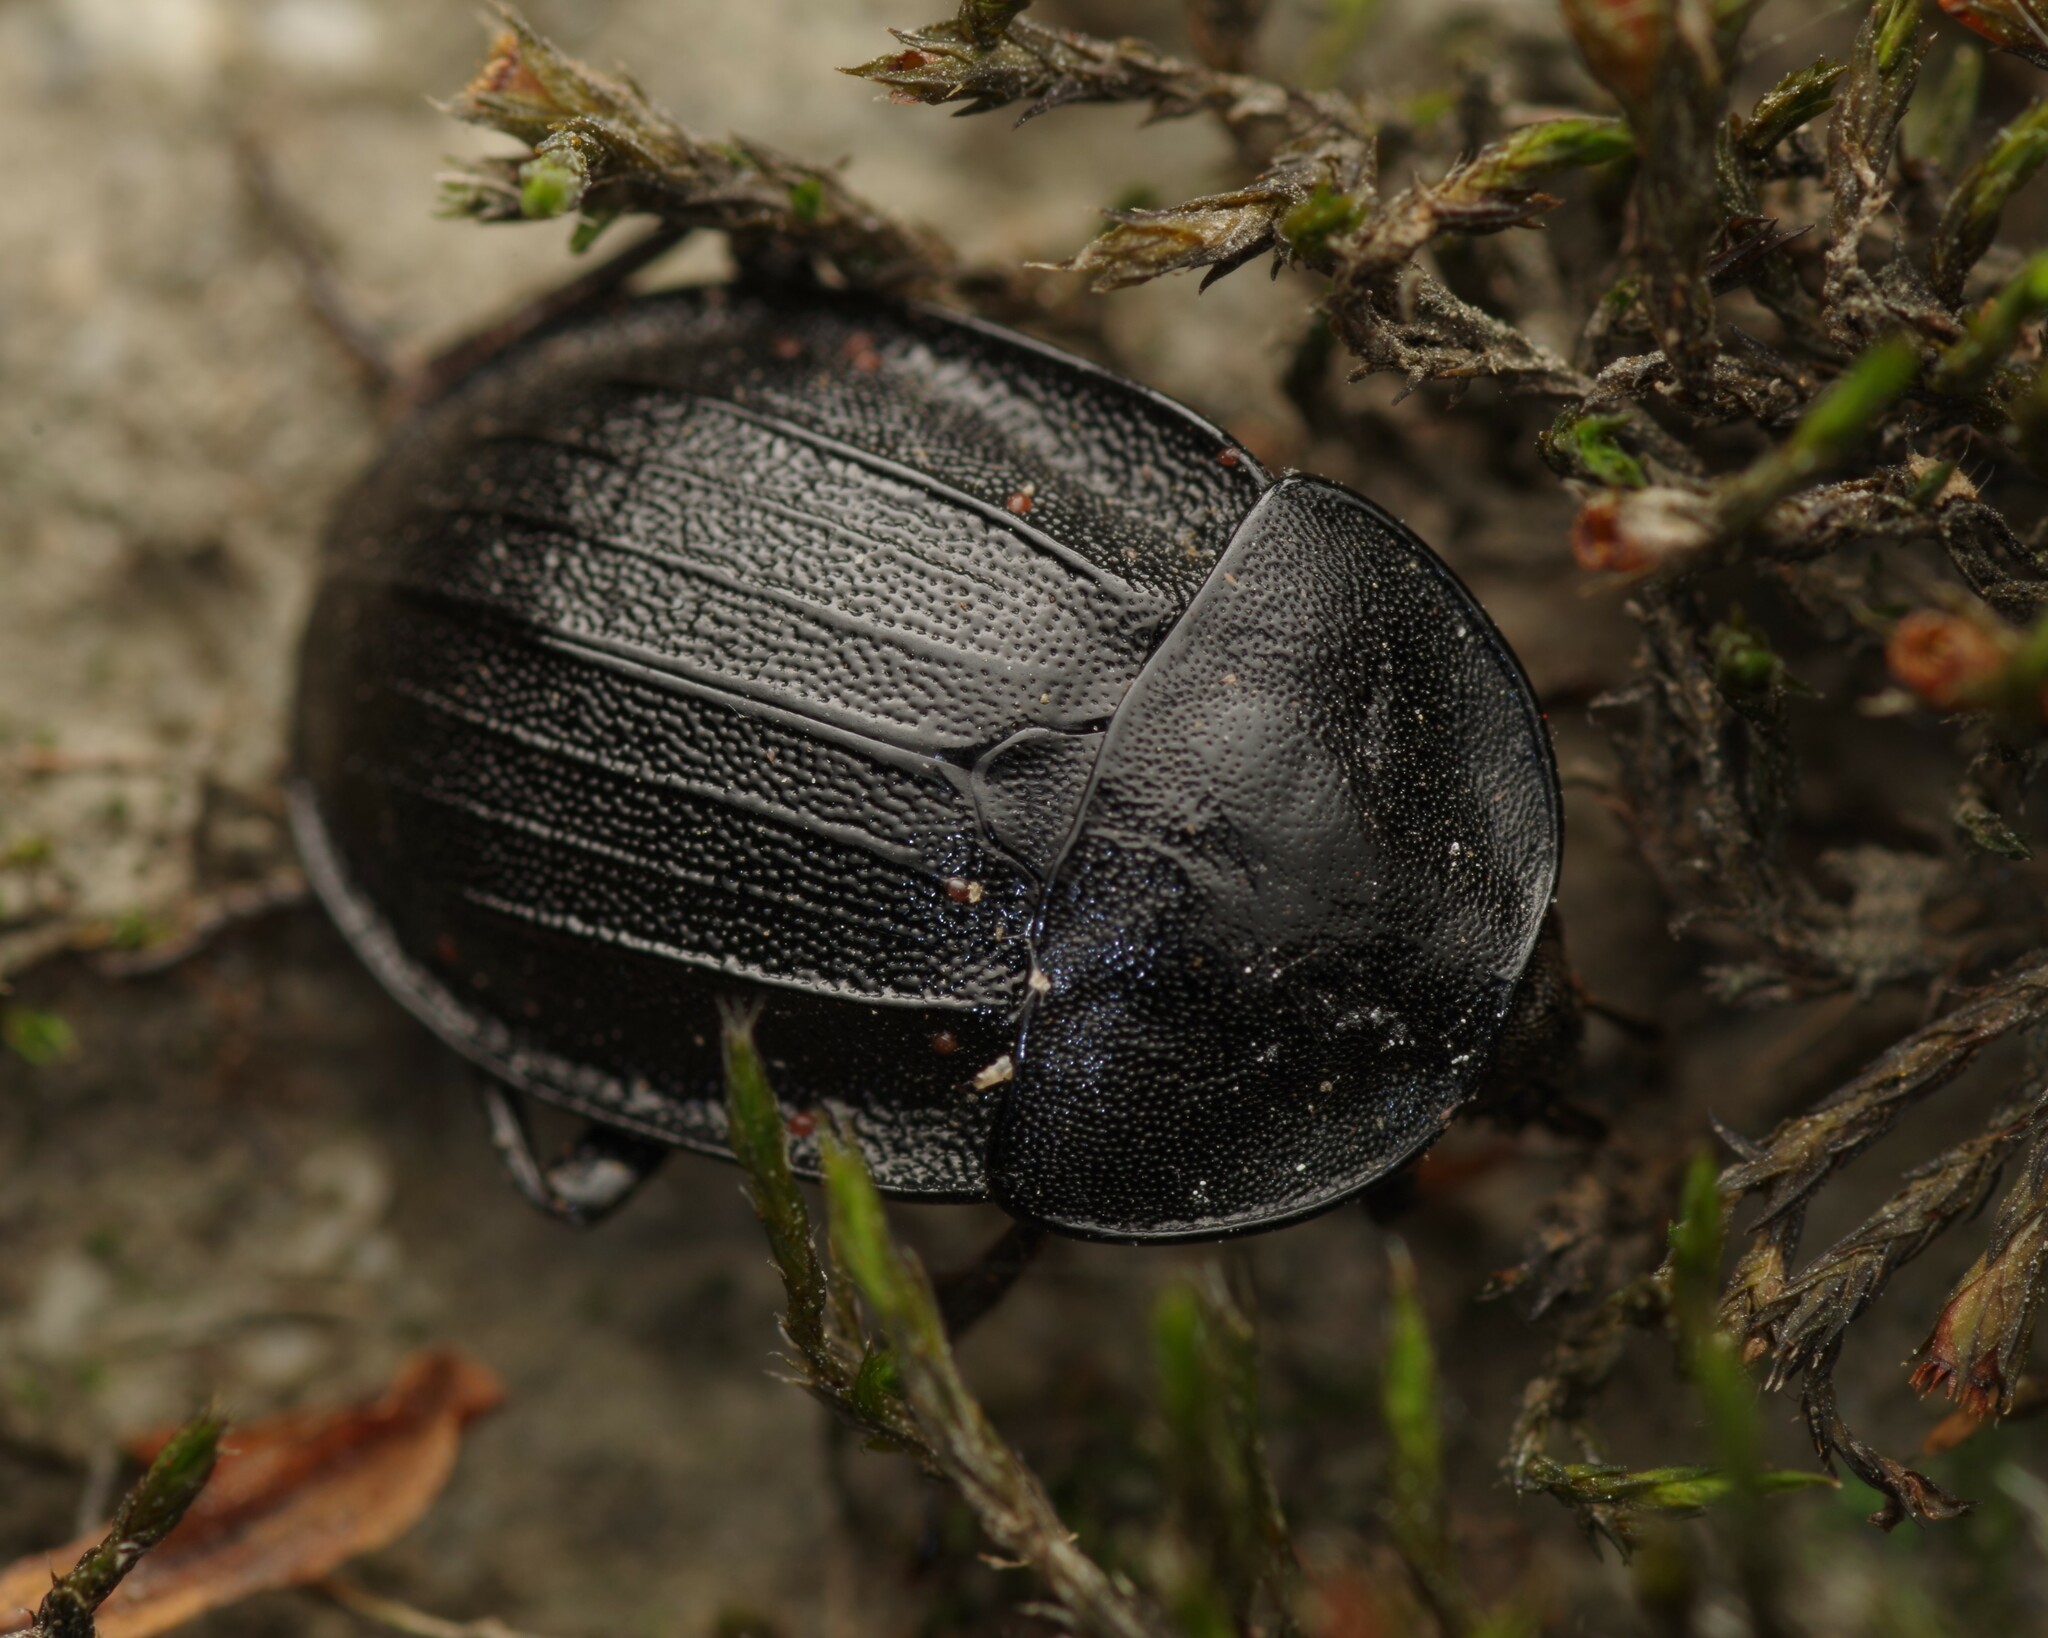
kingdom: Animalia
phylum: Arthropoda
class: Insecta
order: Coleoptera
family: Staphylinidae
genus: Silpha
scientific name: Silpha atrata
